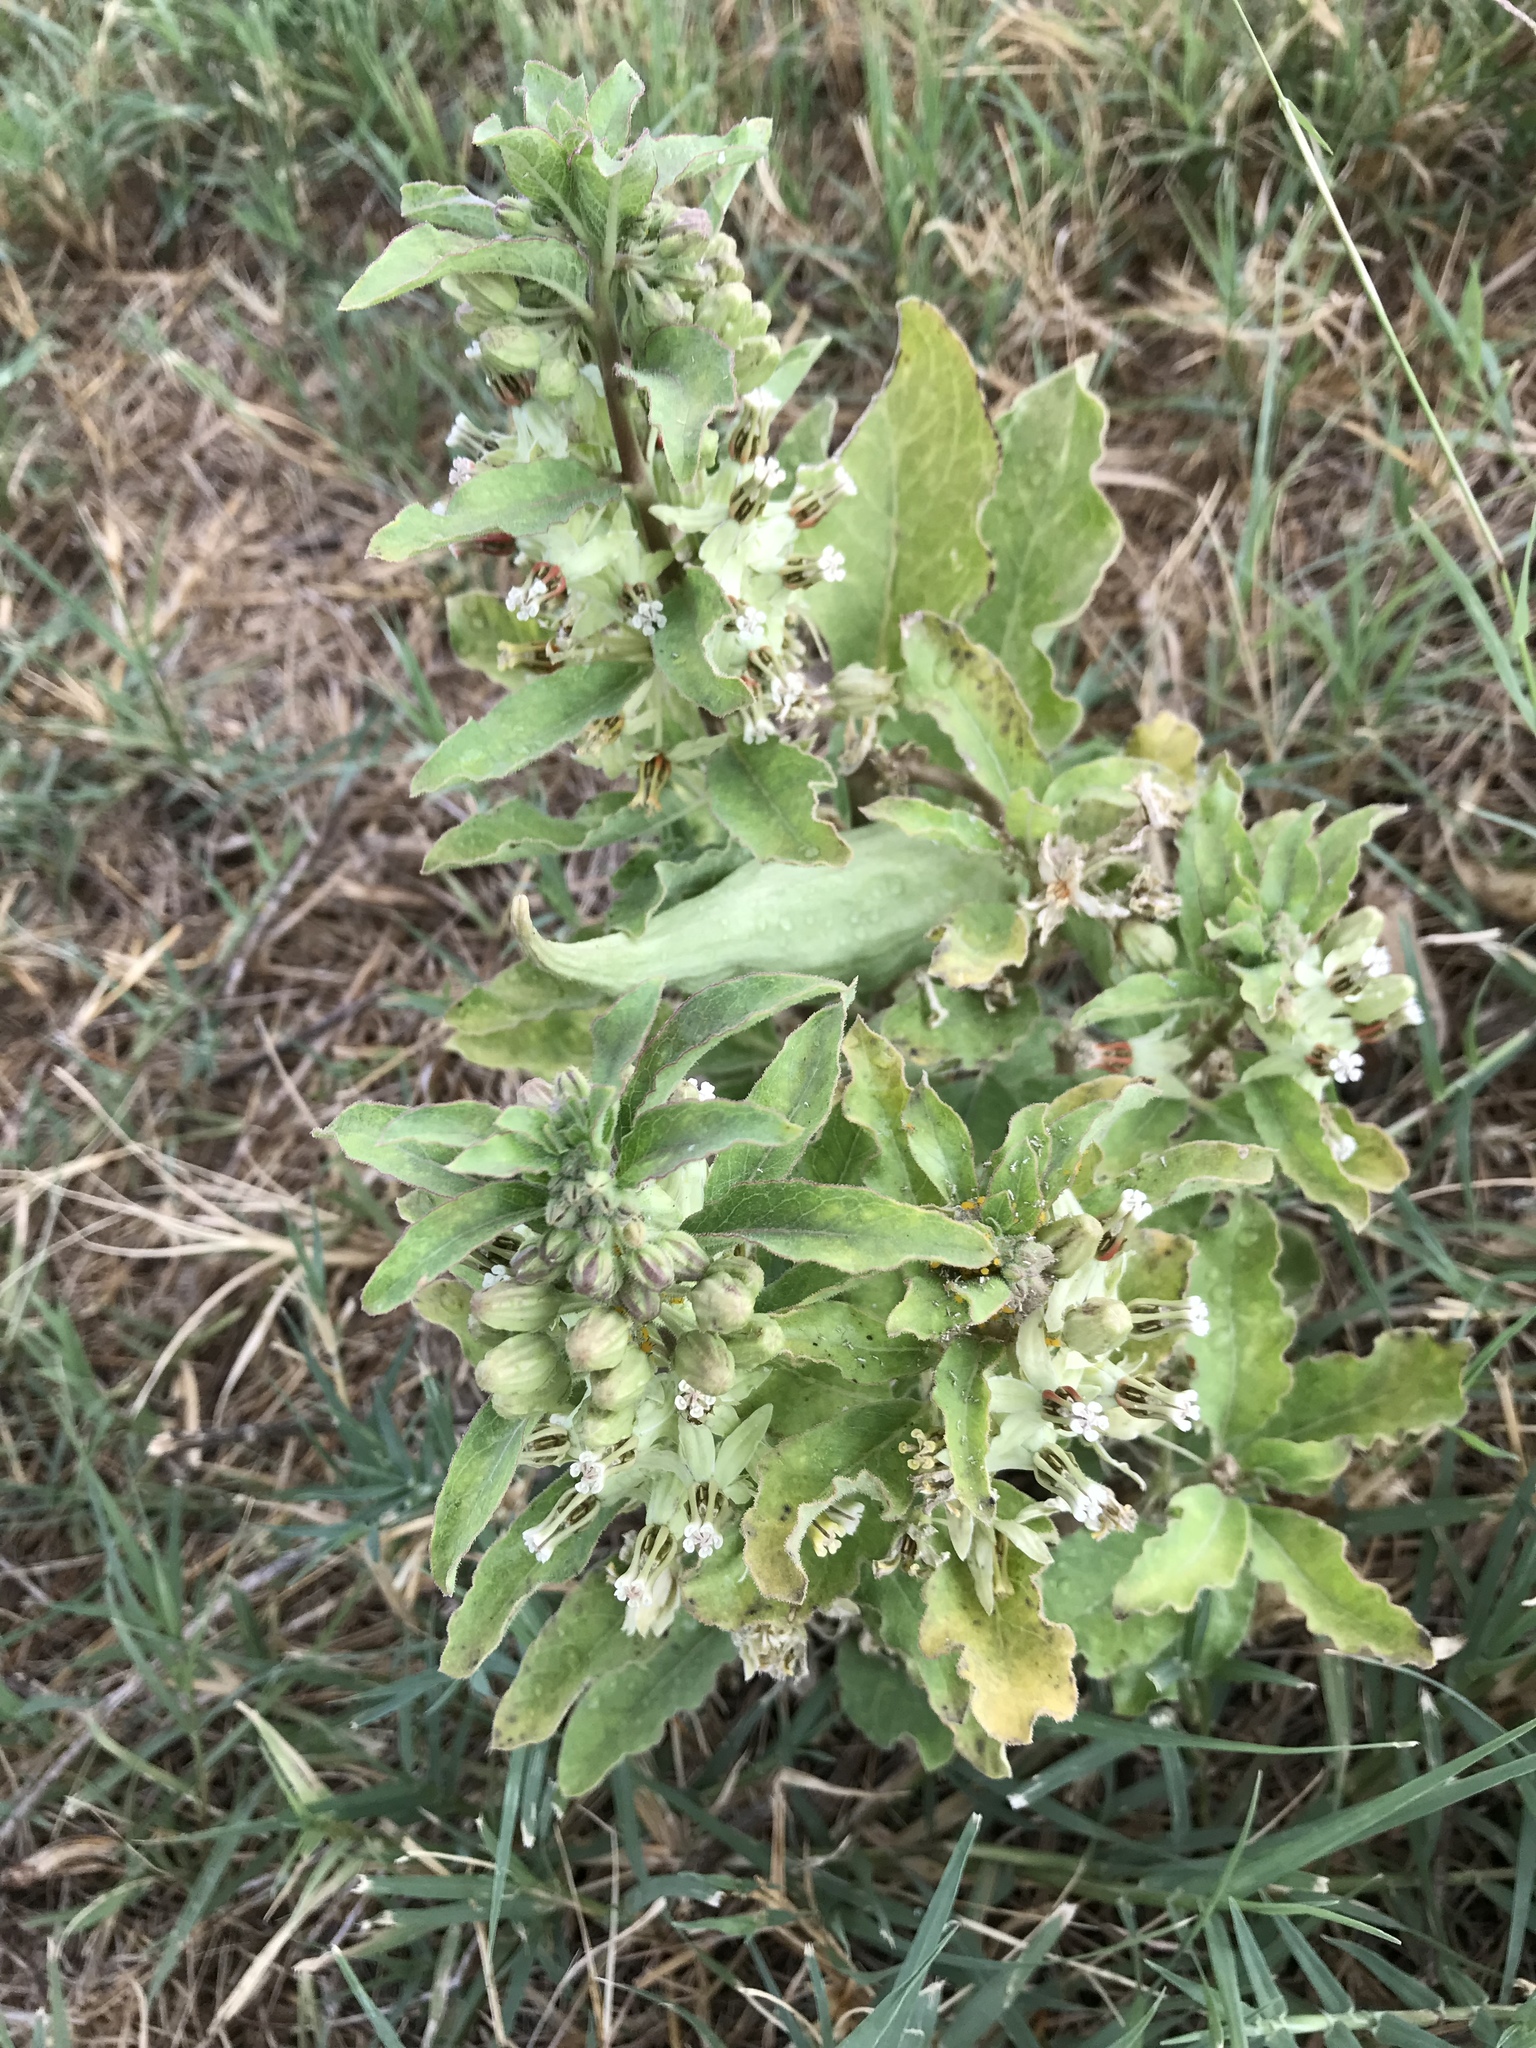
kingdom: Plantae
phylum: Tracheophyta
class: Magnoliopsida
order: Gentianales
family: Apocynaceae
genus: Asclepias
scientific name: Asclepias oenotheroides
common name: Zizotes milkweed
